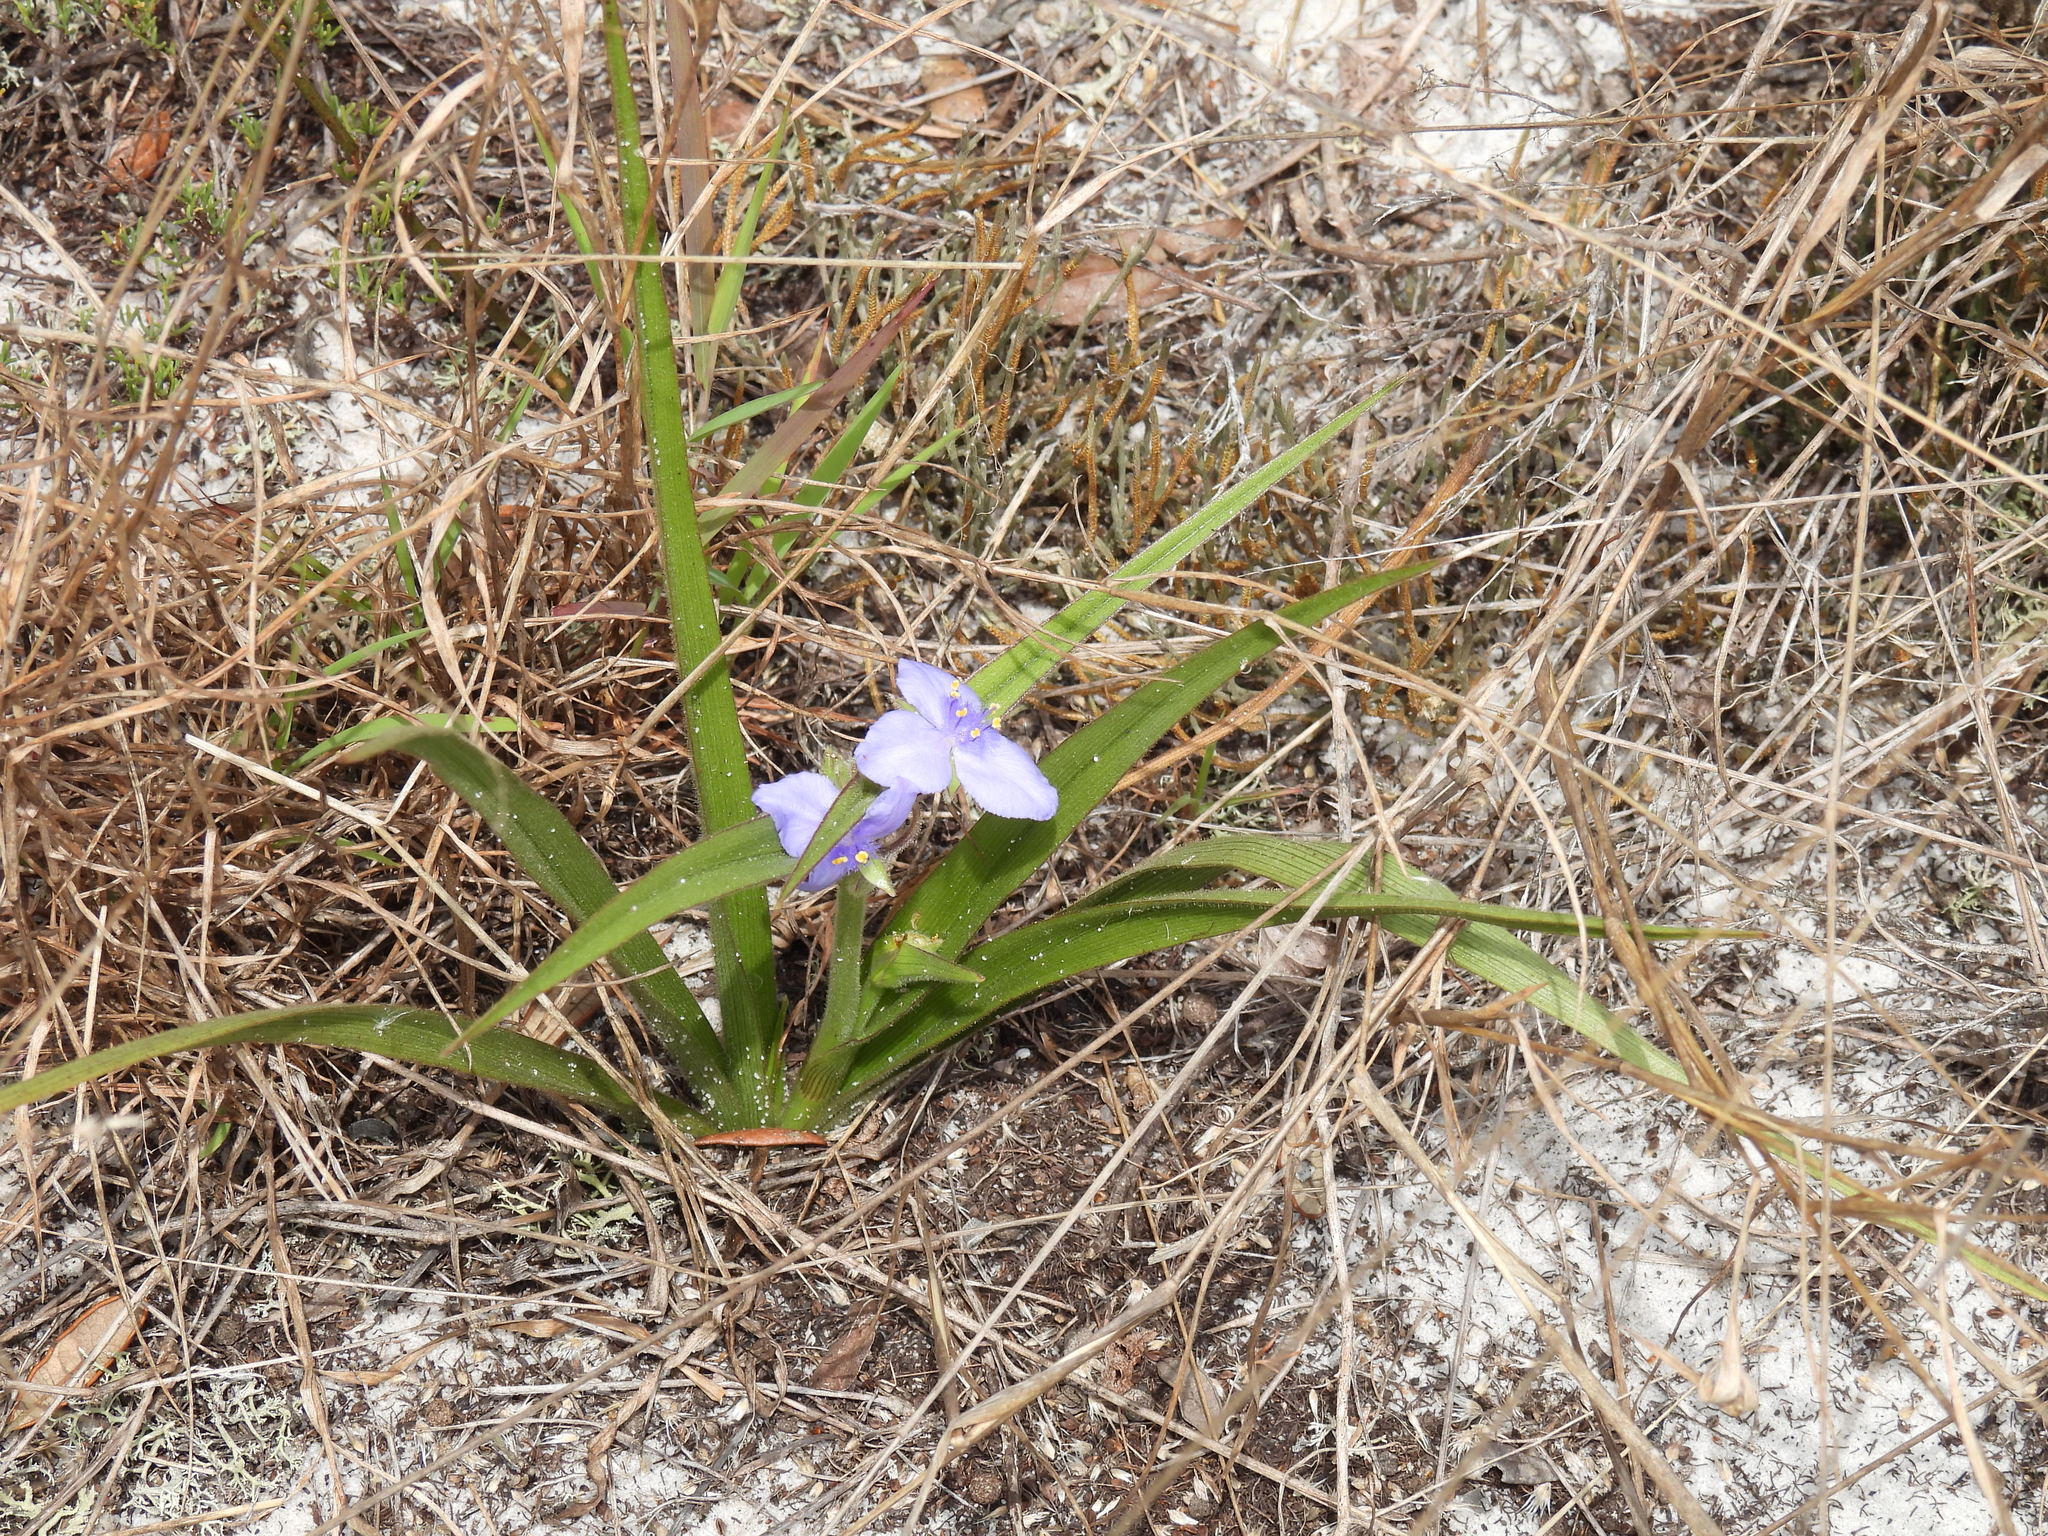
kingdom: Plantae
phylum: Tracheophyta
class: Liliopsida
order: Commelinales
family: Commelinaceae
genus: Tradescantia
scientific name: Tradescantia roseolens
